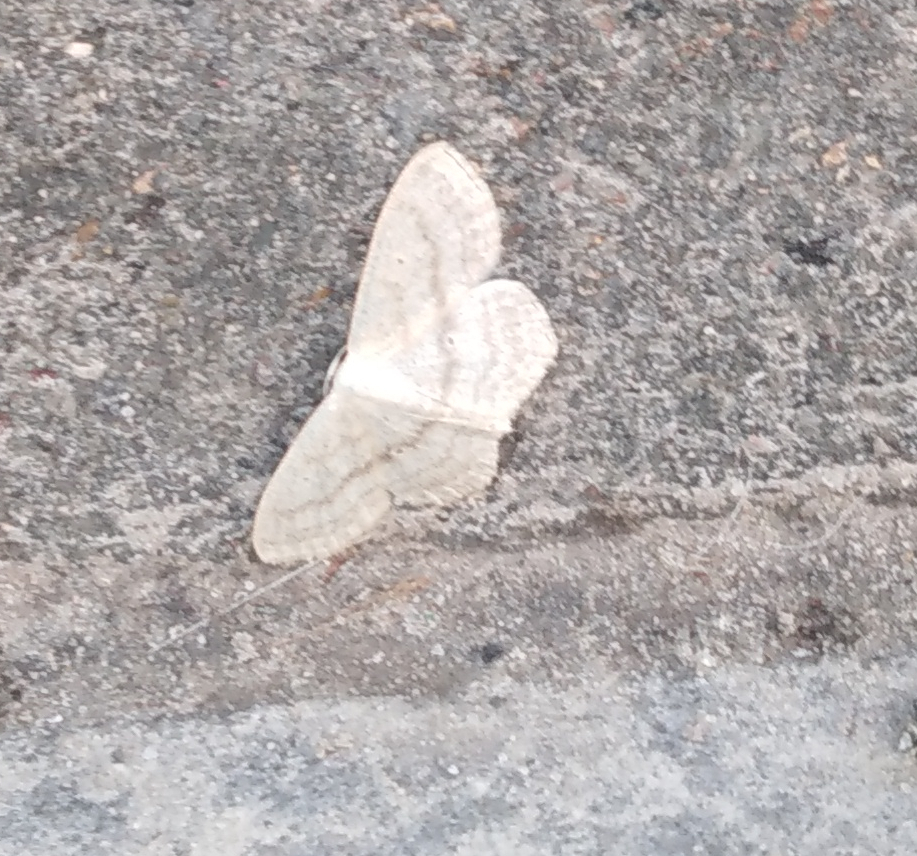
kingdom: Animalia
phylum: Arthropoda
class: Insecta
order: Lepidoptera
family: Geometridae
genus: Scopula
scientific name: Scopula nigropunctata
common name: Sub-angled wave
